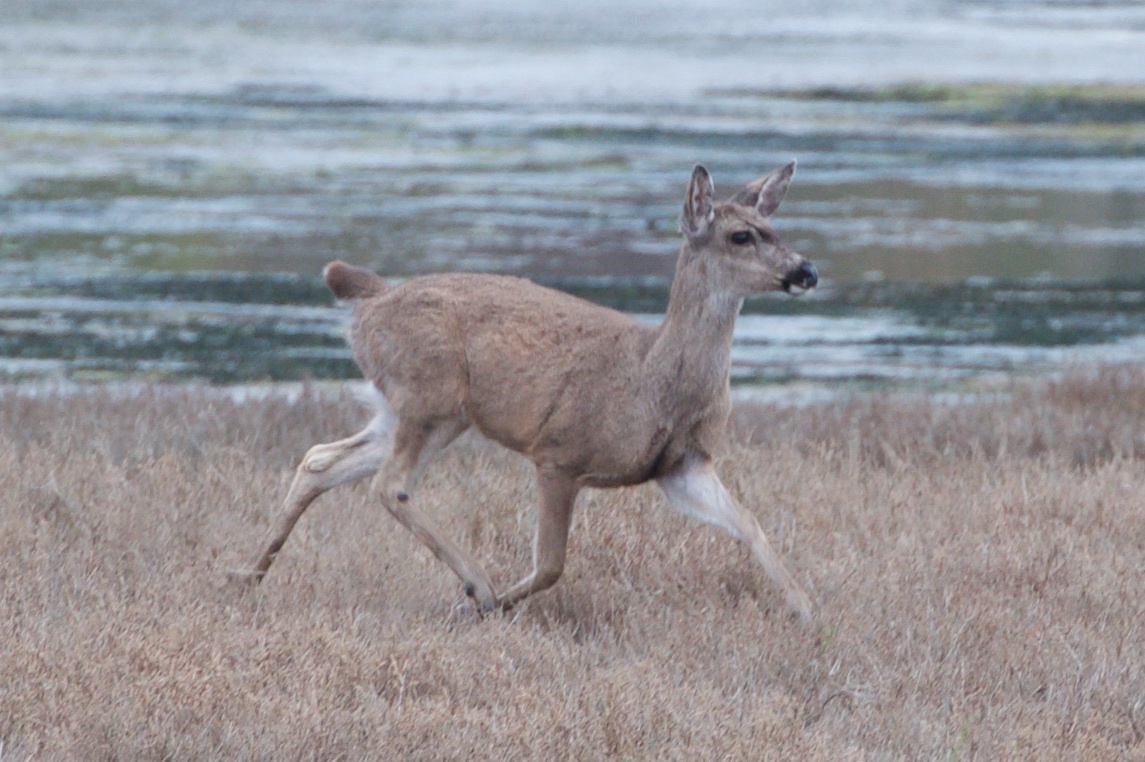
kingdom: Animalia
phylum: Chordata
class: Mammalia
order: Artiodactyla
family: Cervidae
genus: Odocoileus
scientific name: Odocoileus hemionus
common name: Mule deer
